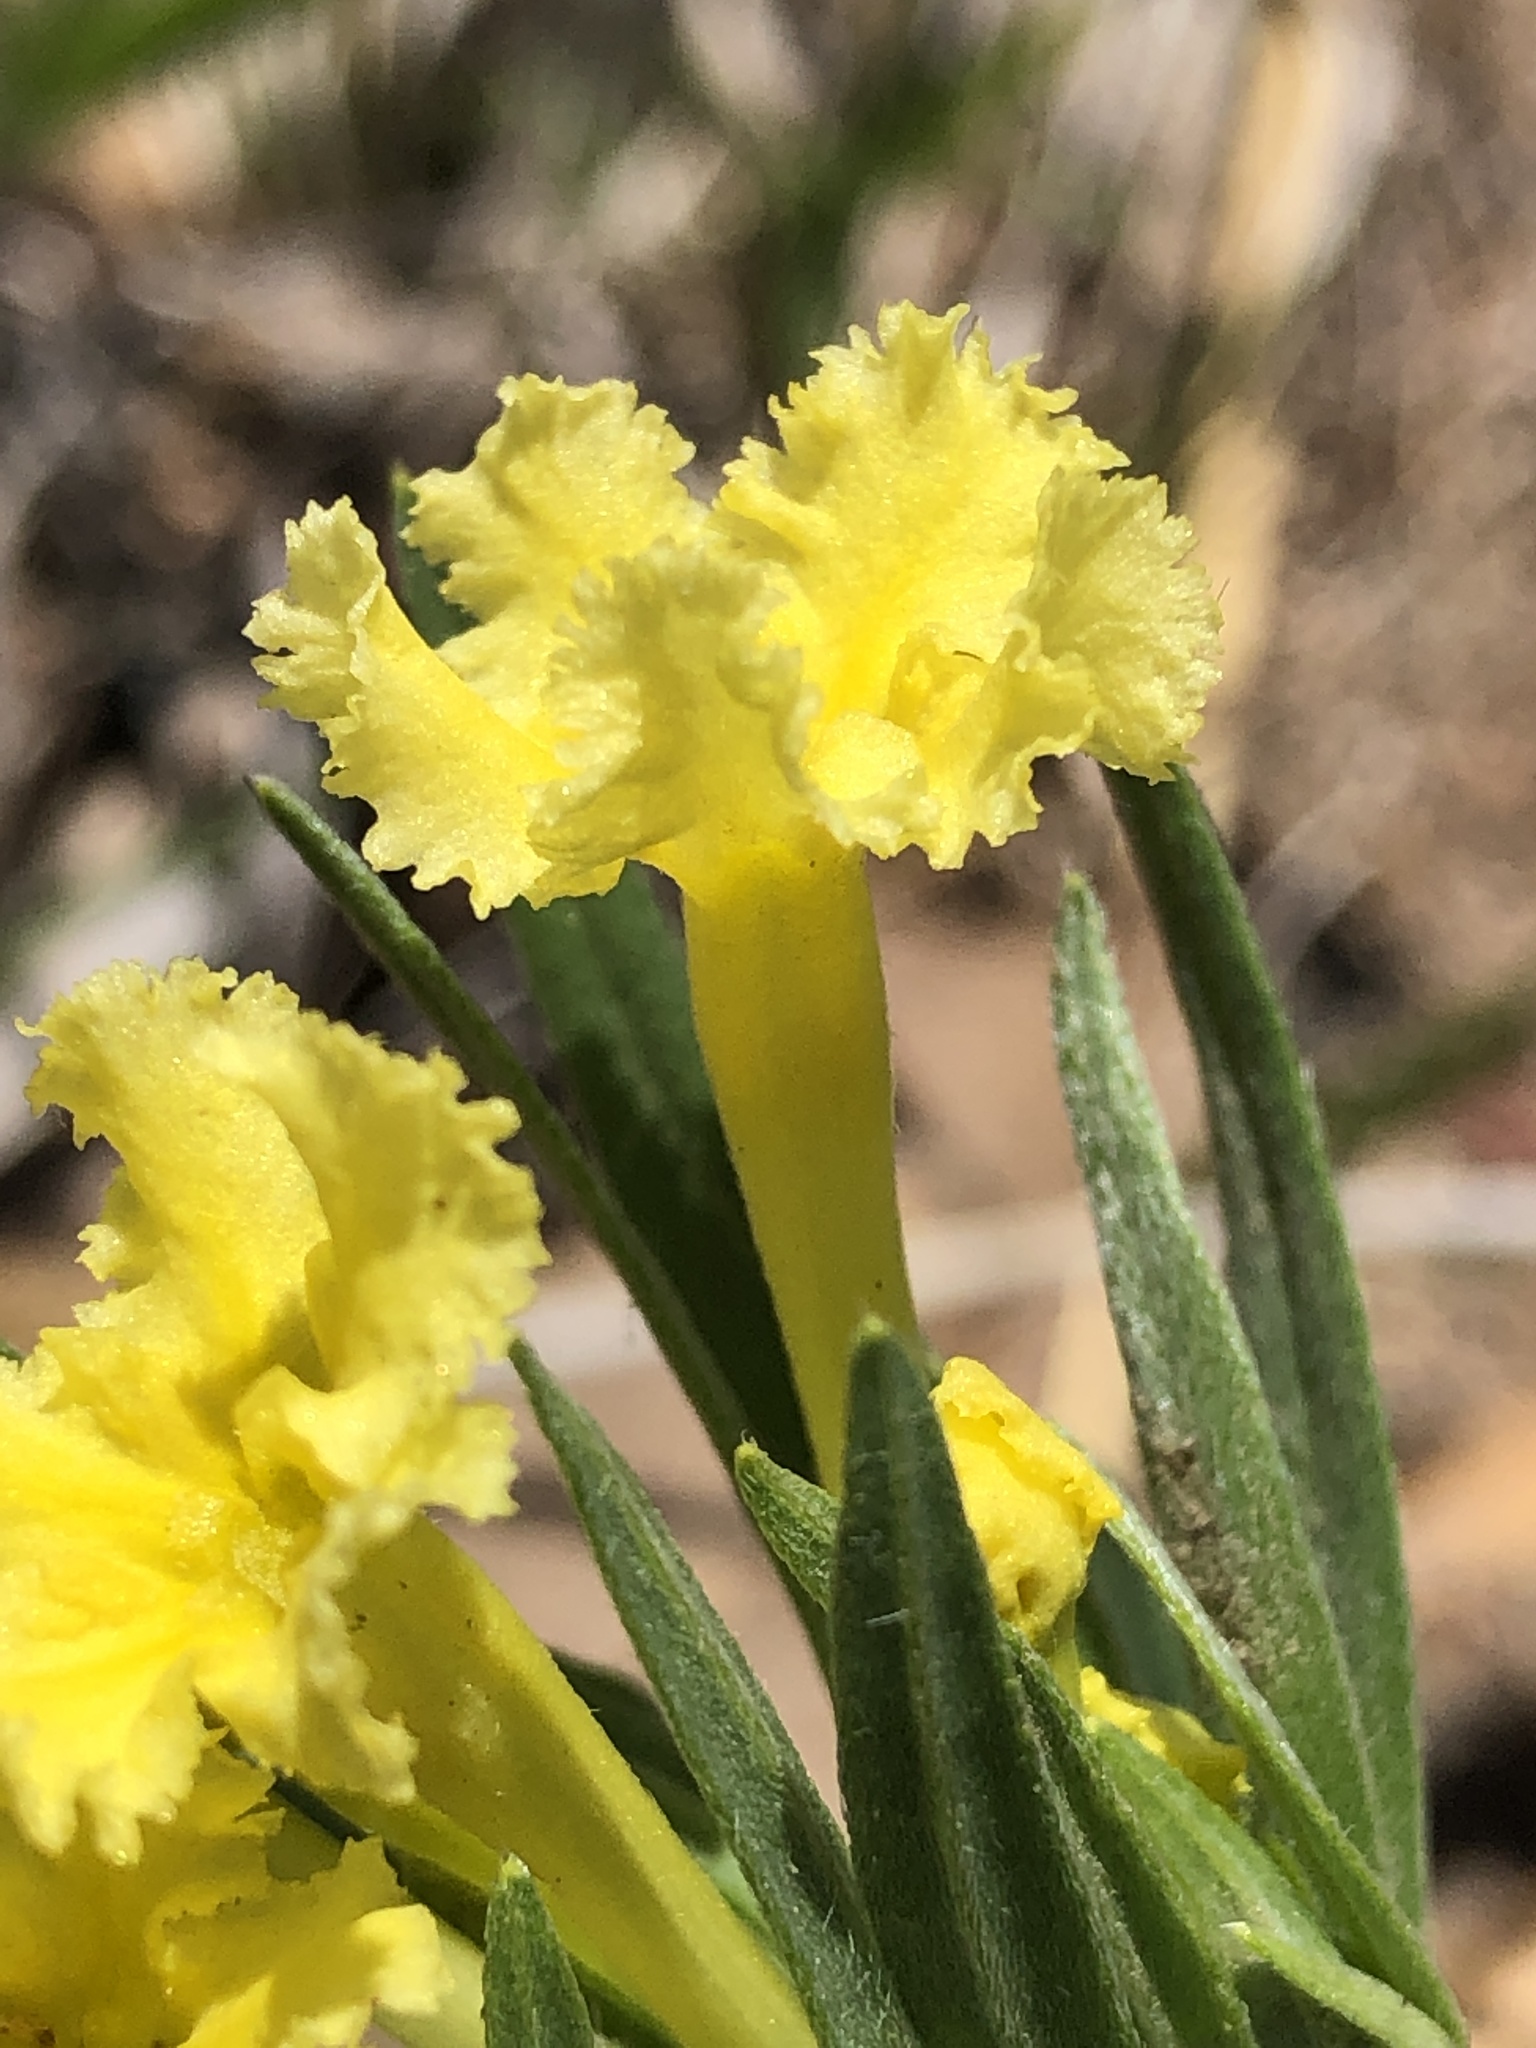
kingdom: Plantae
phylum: Tracheophyta
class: Magnoliopsida
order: Boraginales
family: Boraginaceae
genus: Lithospermum
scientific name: Lithospermum incisum
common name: Fringed gromwell
